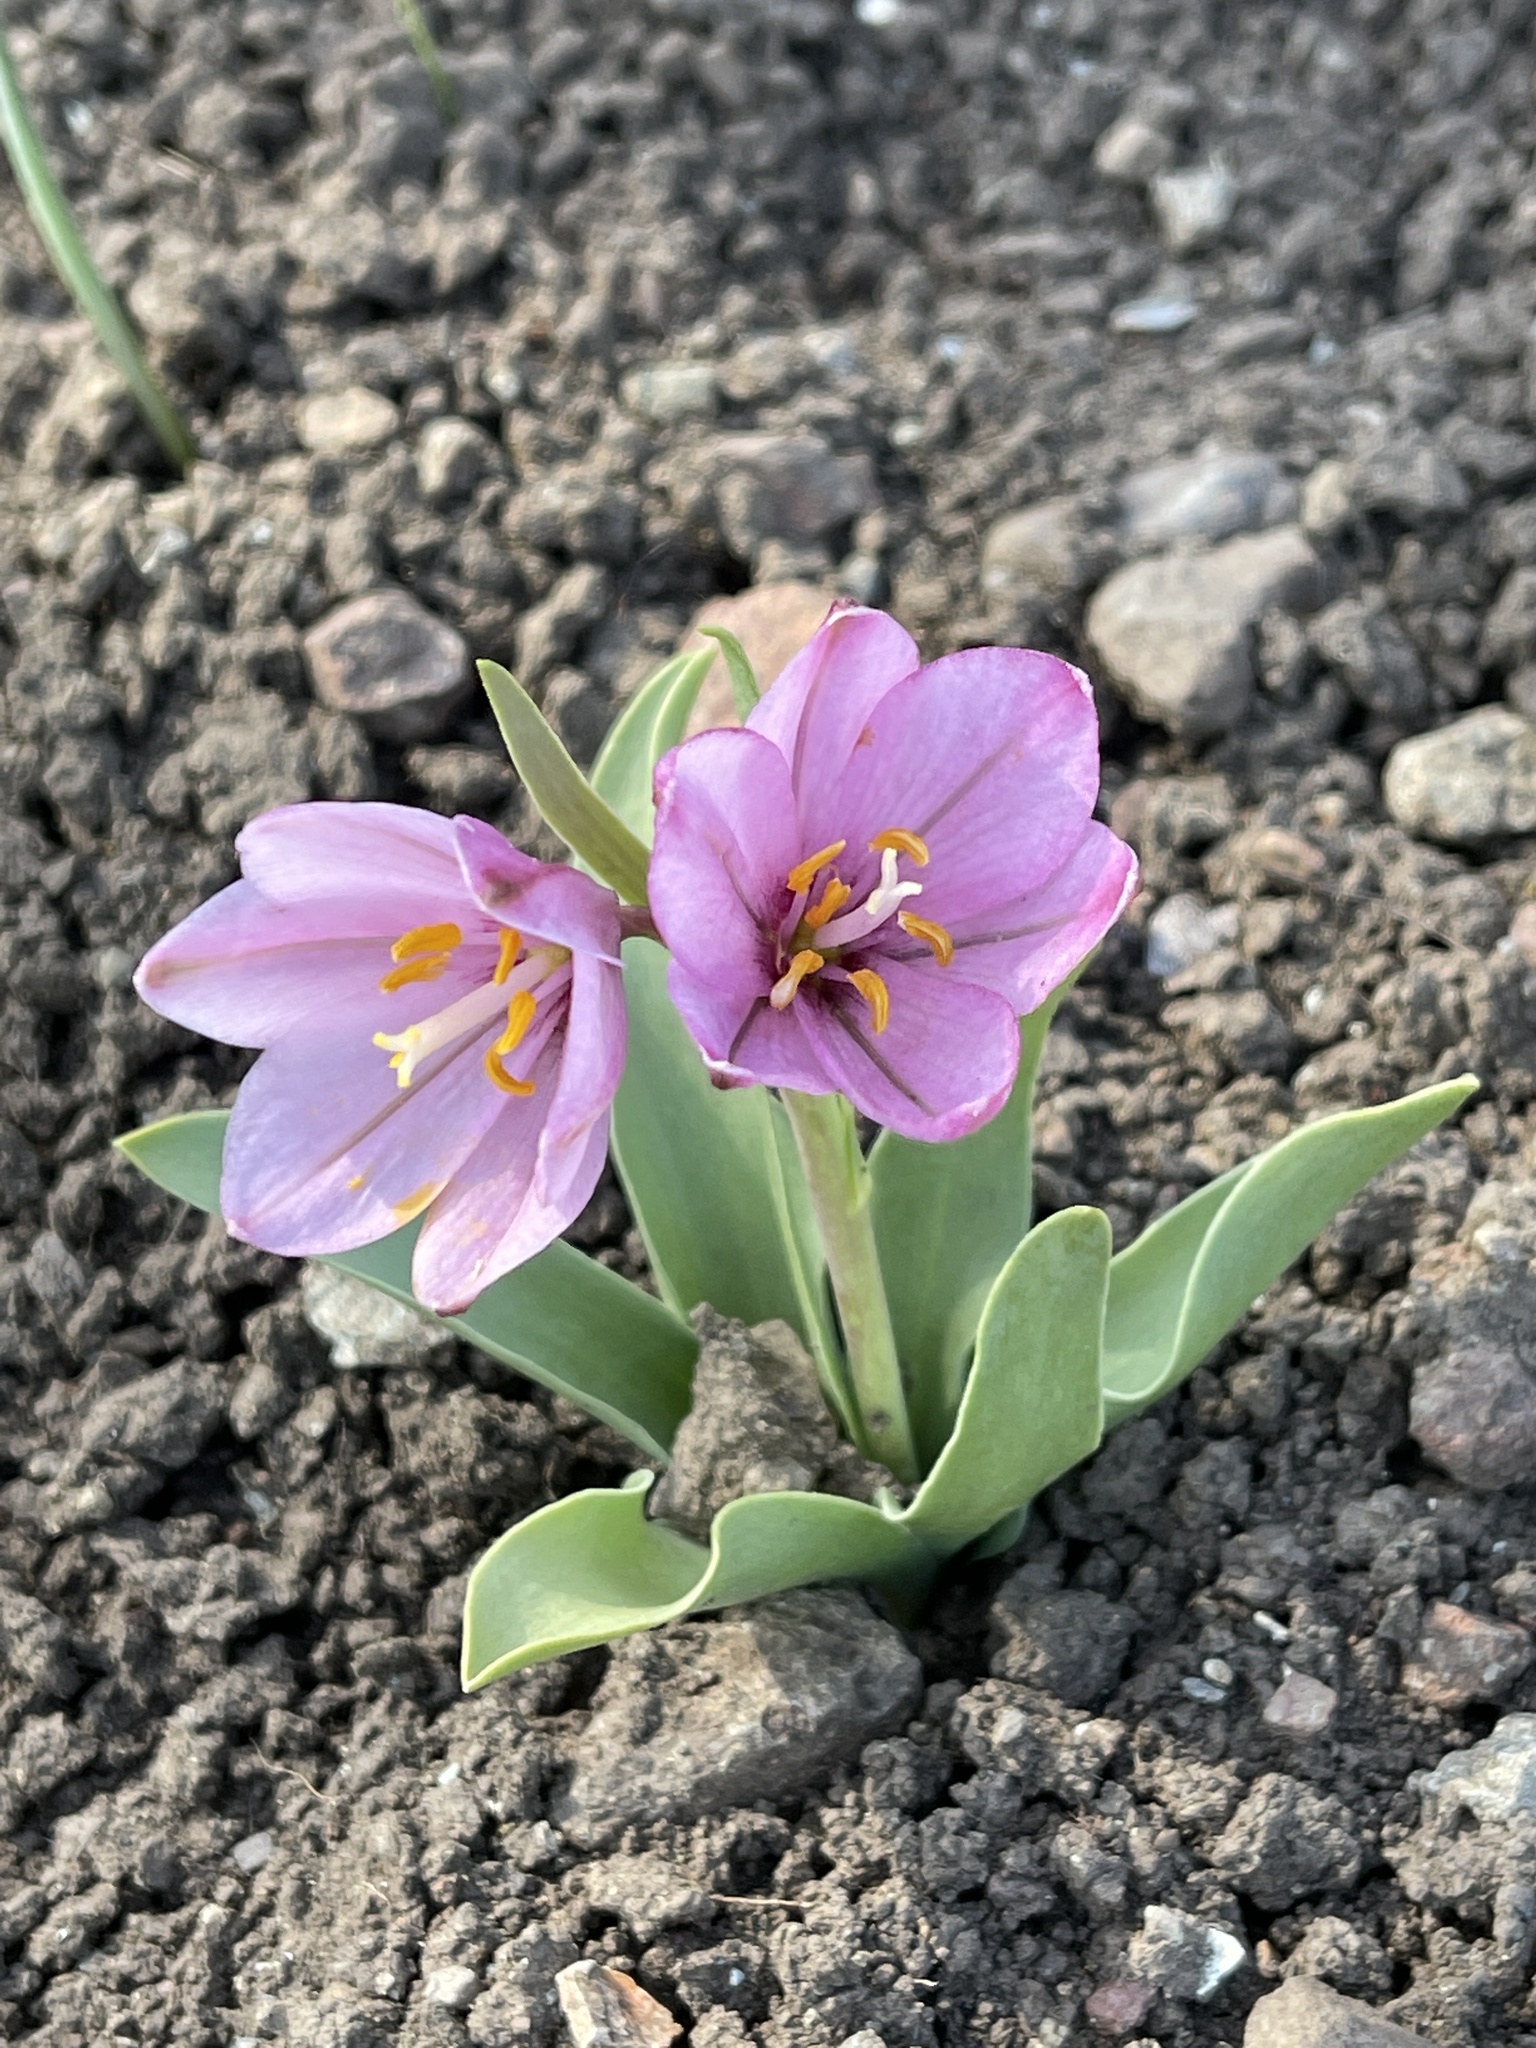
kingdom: Plantae
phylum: Tracheophyta
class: Liliopsida
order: Liliales
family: Liliaceae
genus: Fritillaria
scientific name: Fritillaria pluriflora
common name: Adobe-lily
